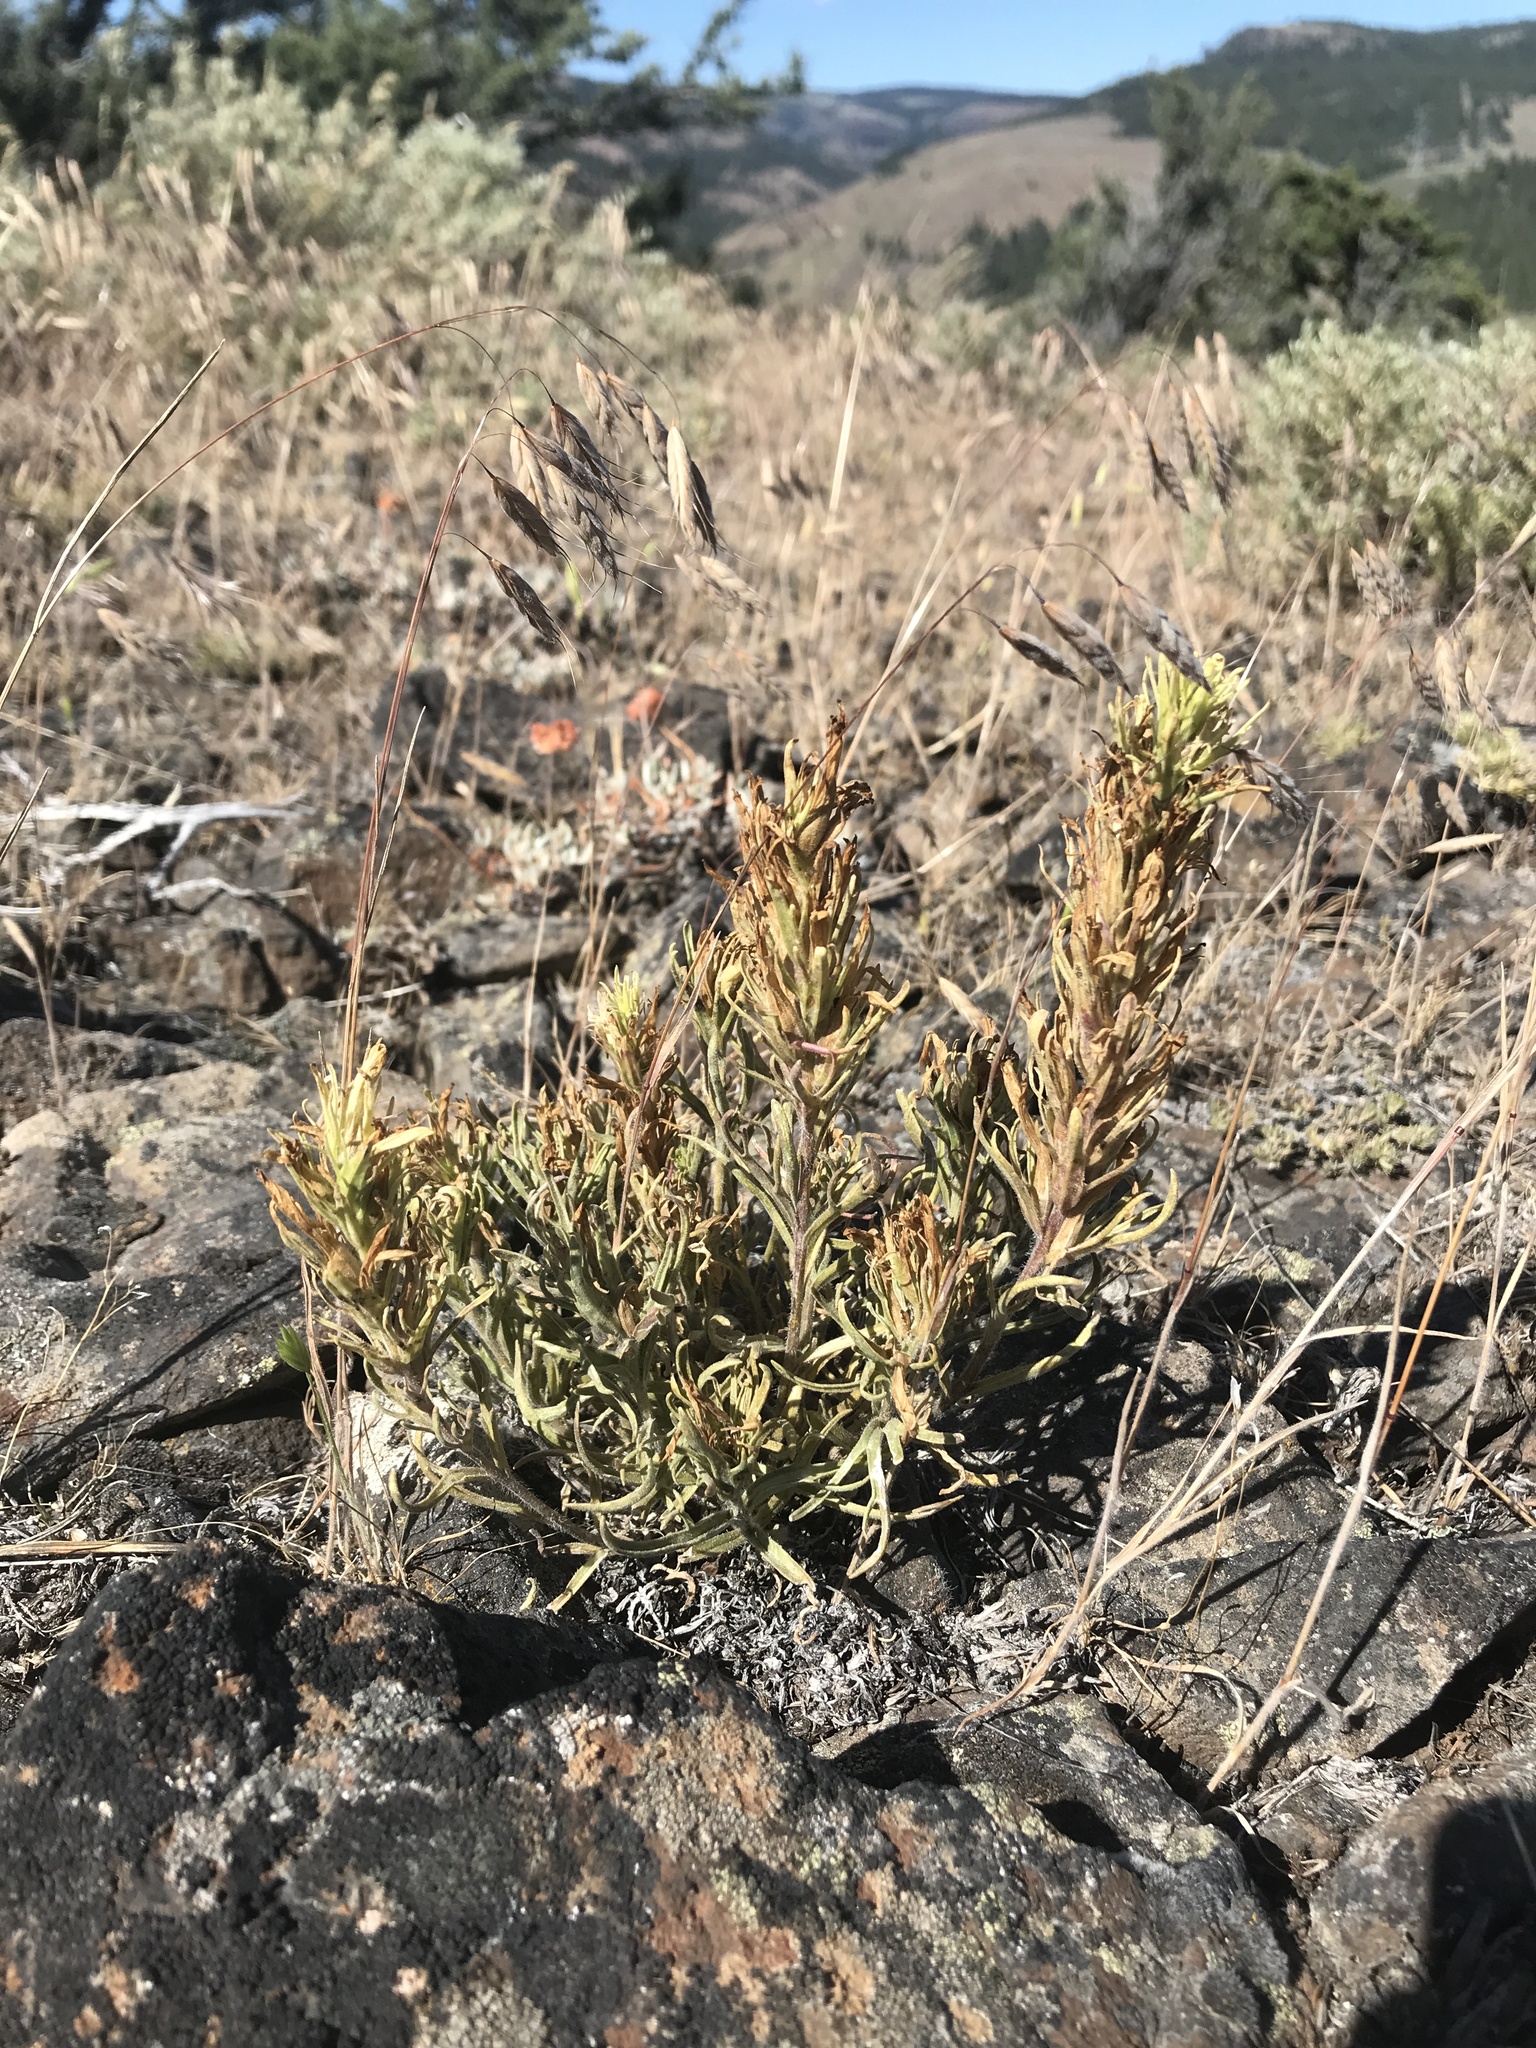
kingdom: Plantae
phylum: Tracheophyta
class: Magnoliopsida
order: Lamiales
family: Orobanchaceae
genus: Castilleja
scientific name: Castilleja thompsonii
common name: Thompson's paintbrush
